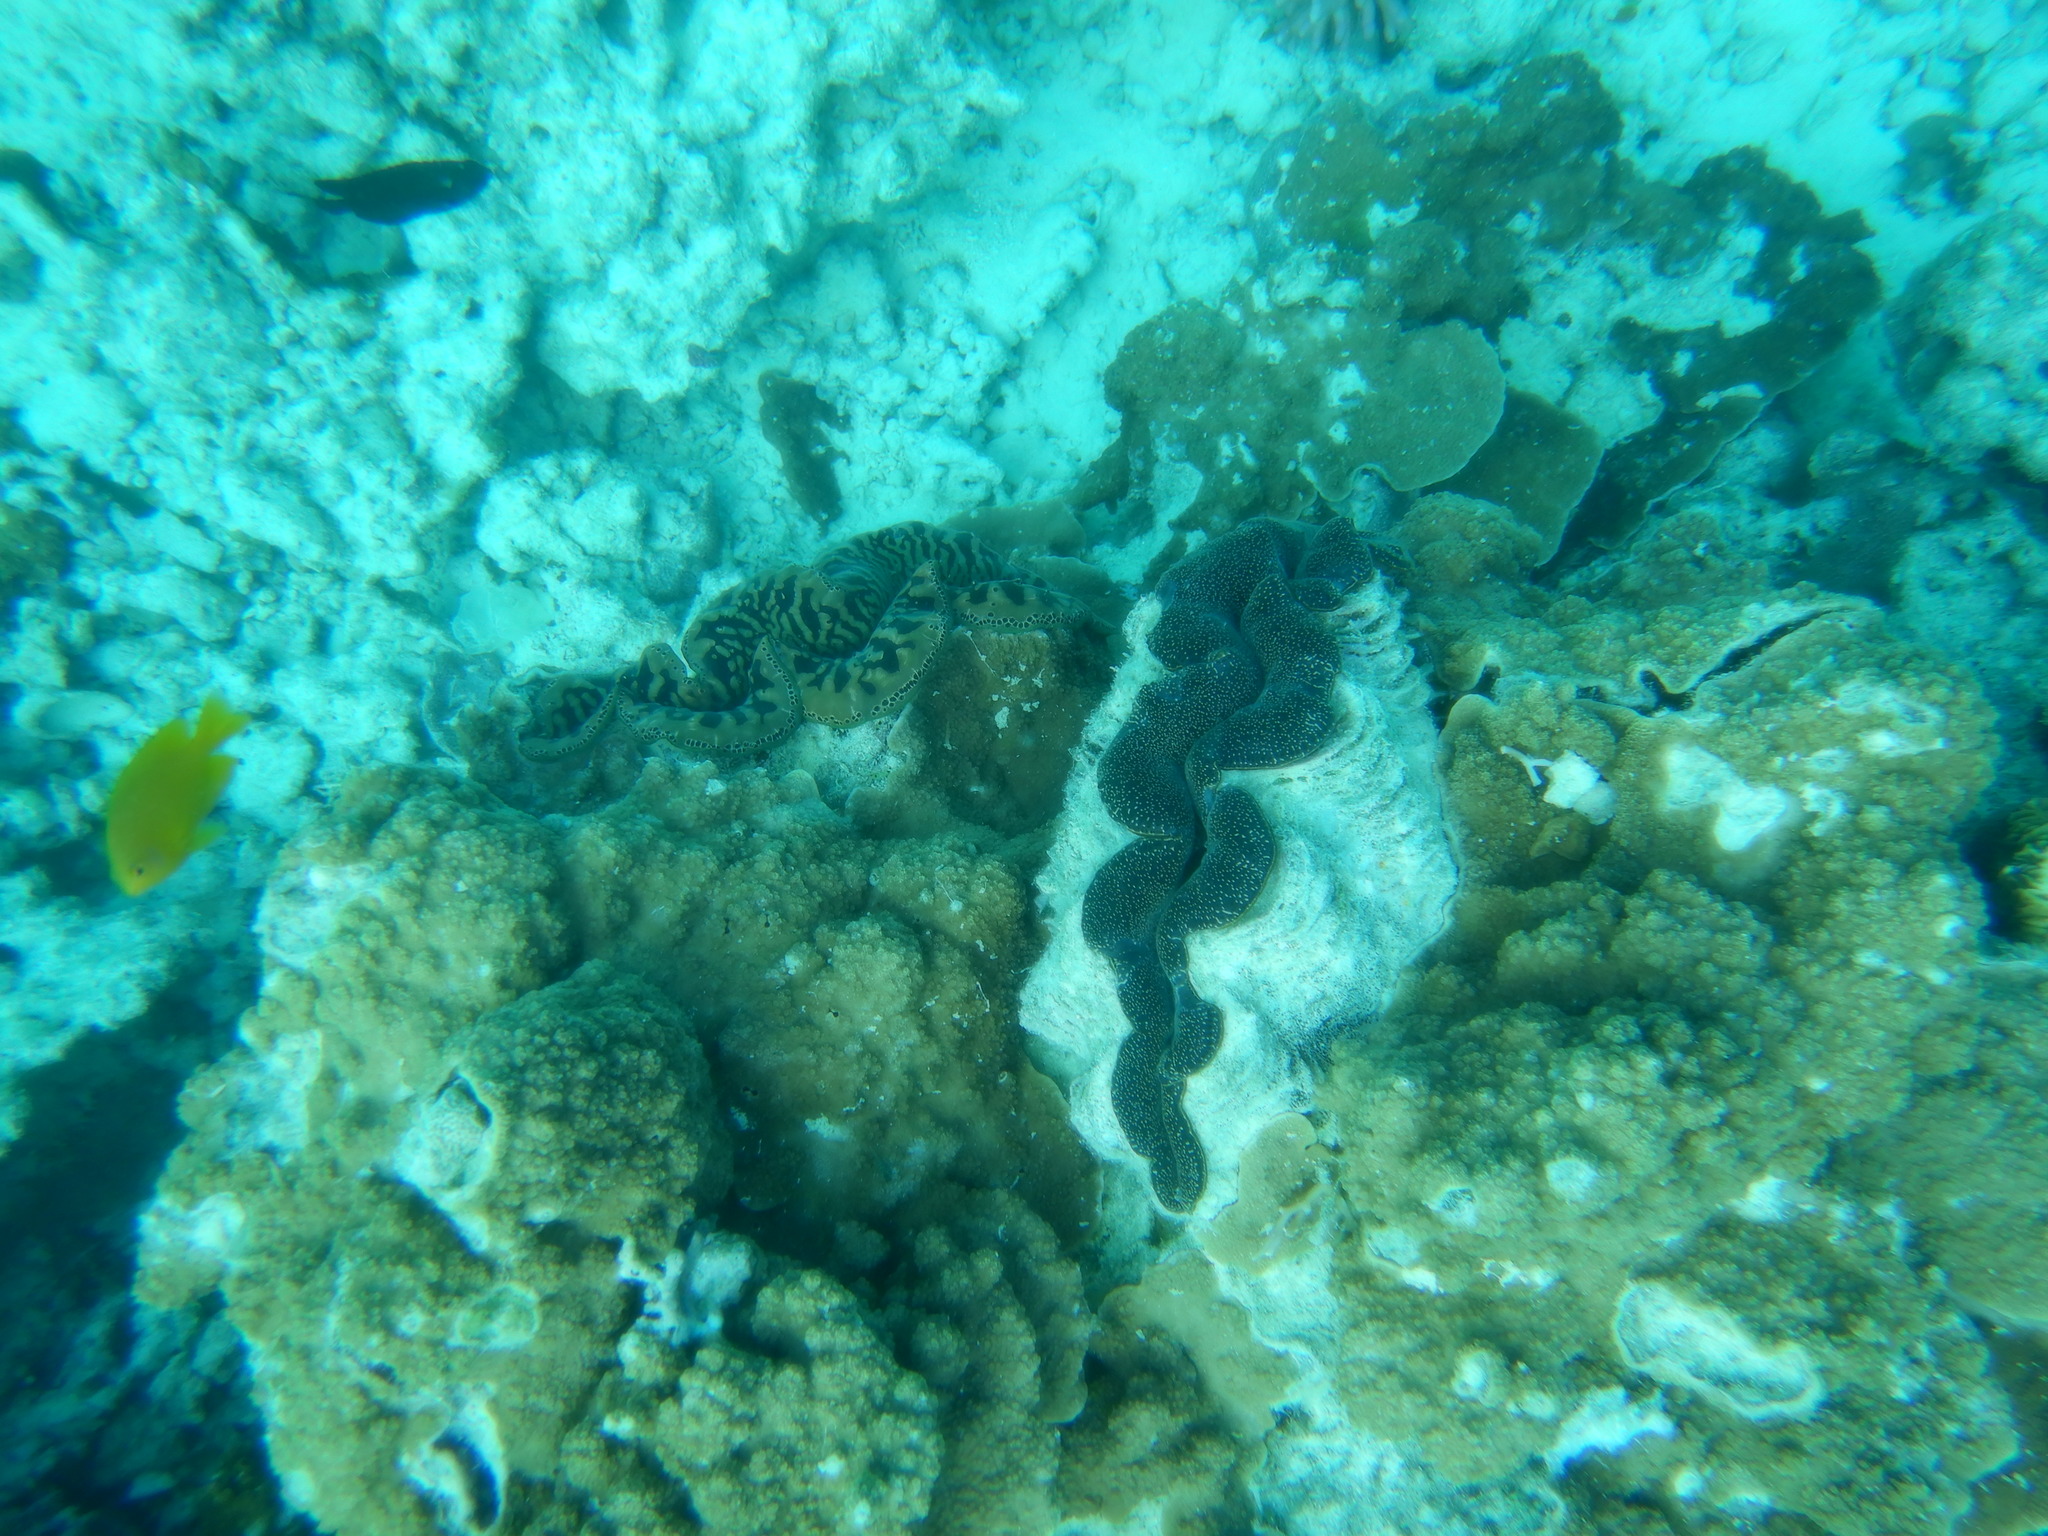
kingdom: Animalia
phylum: Mollusca
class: Bivalvia
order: Cardiida
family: Cardiidae
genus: Tridacna
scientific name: Tridacna maxima
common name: Small giant clam
